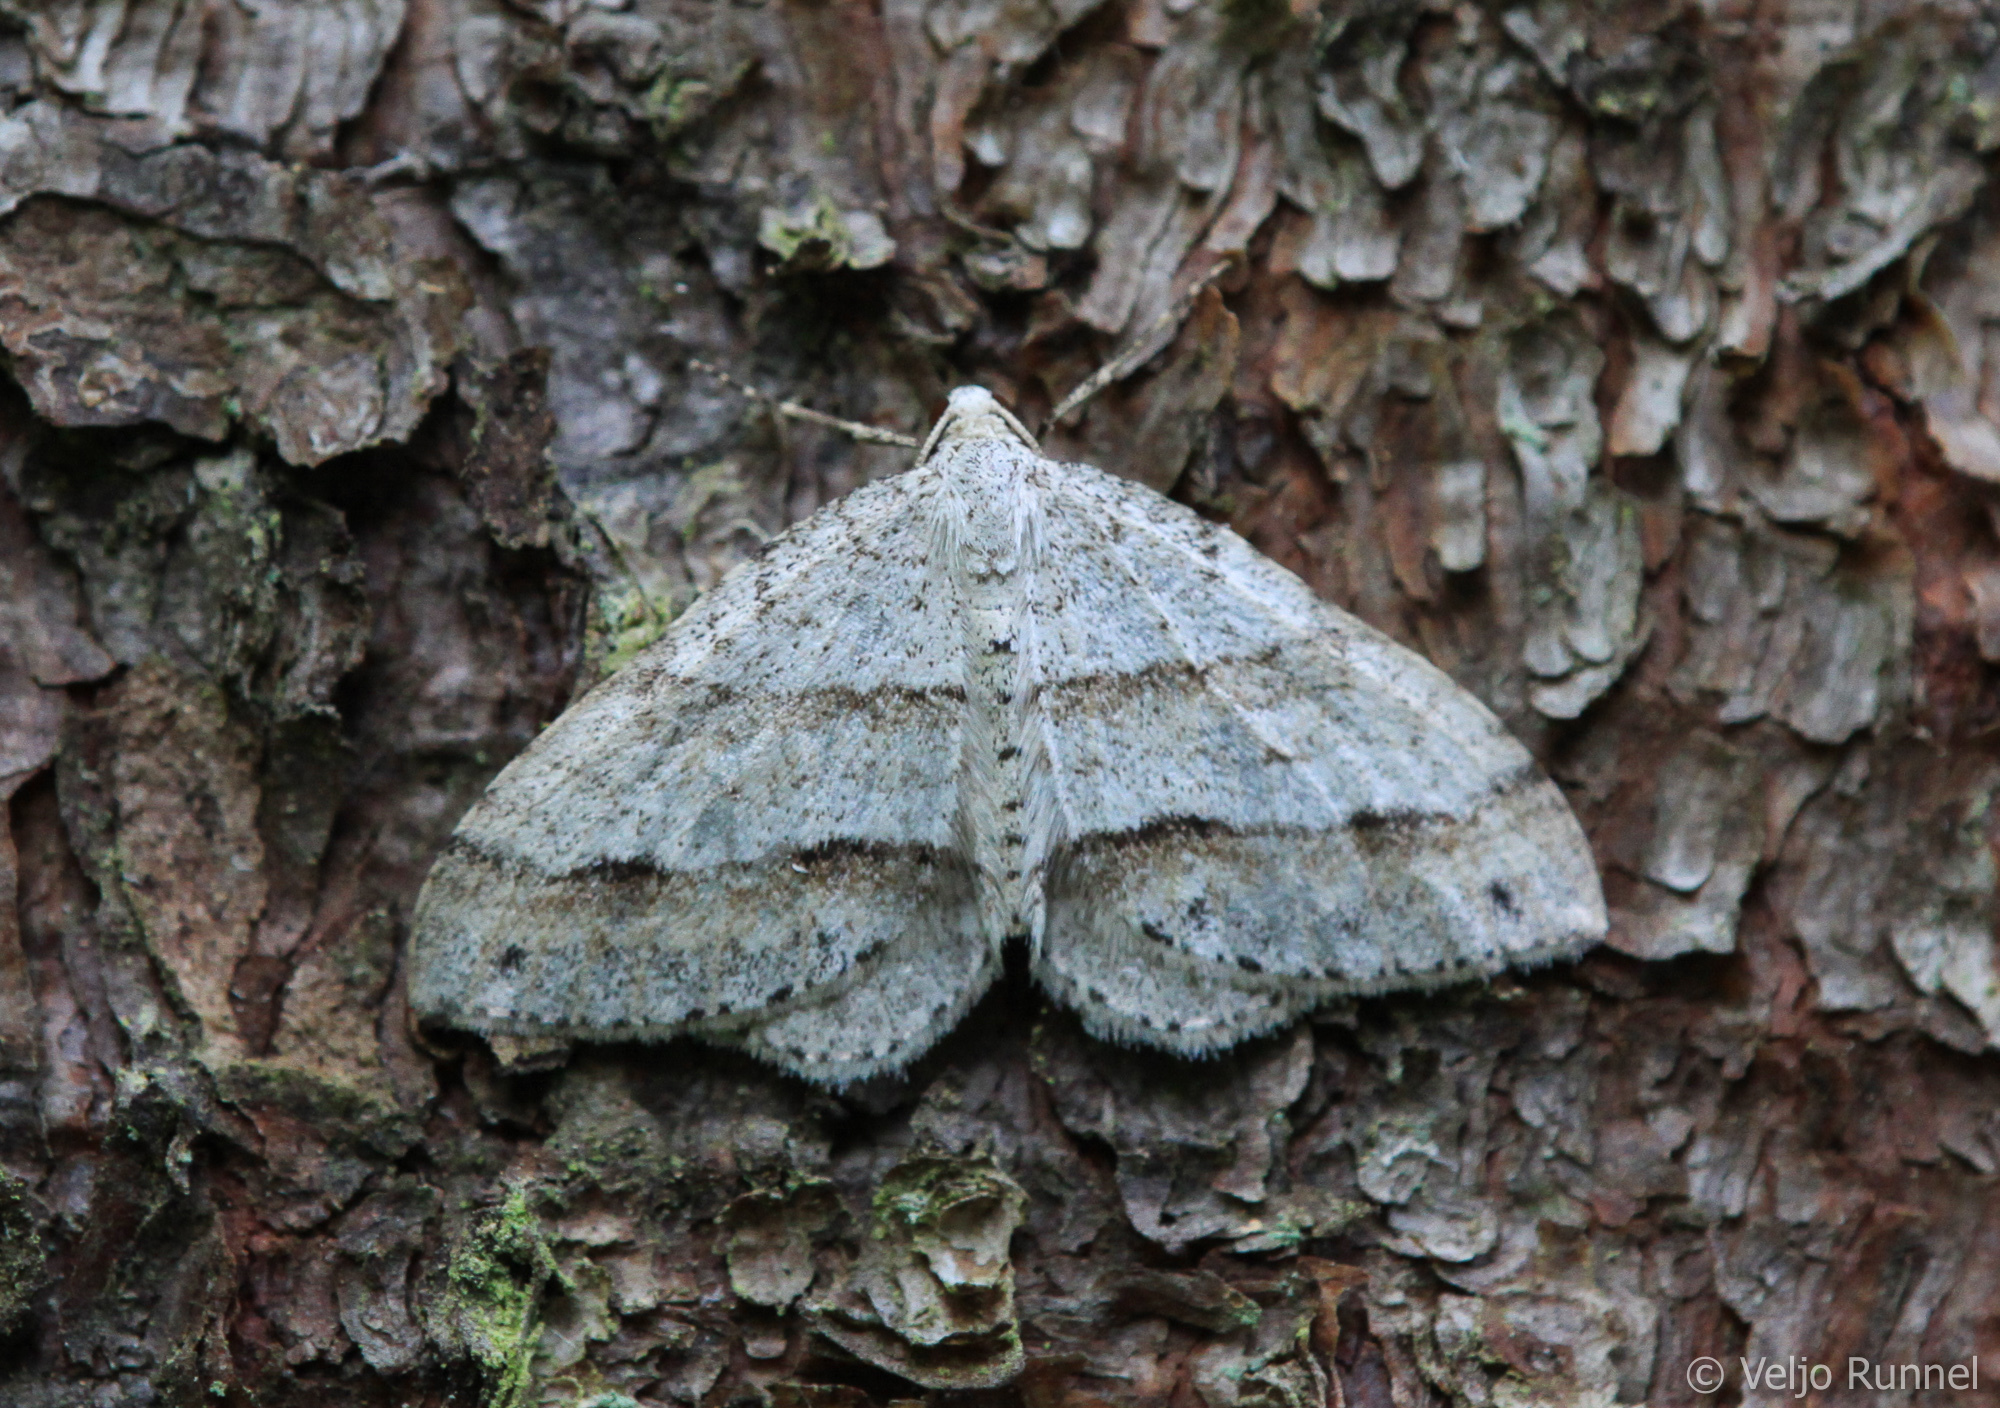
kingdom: Animalia
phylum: Arthropoda
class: Insecta
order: Lepidoptera
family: Geometridae
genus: Perizoma
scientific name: Perizoma parallelolineata
